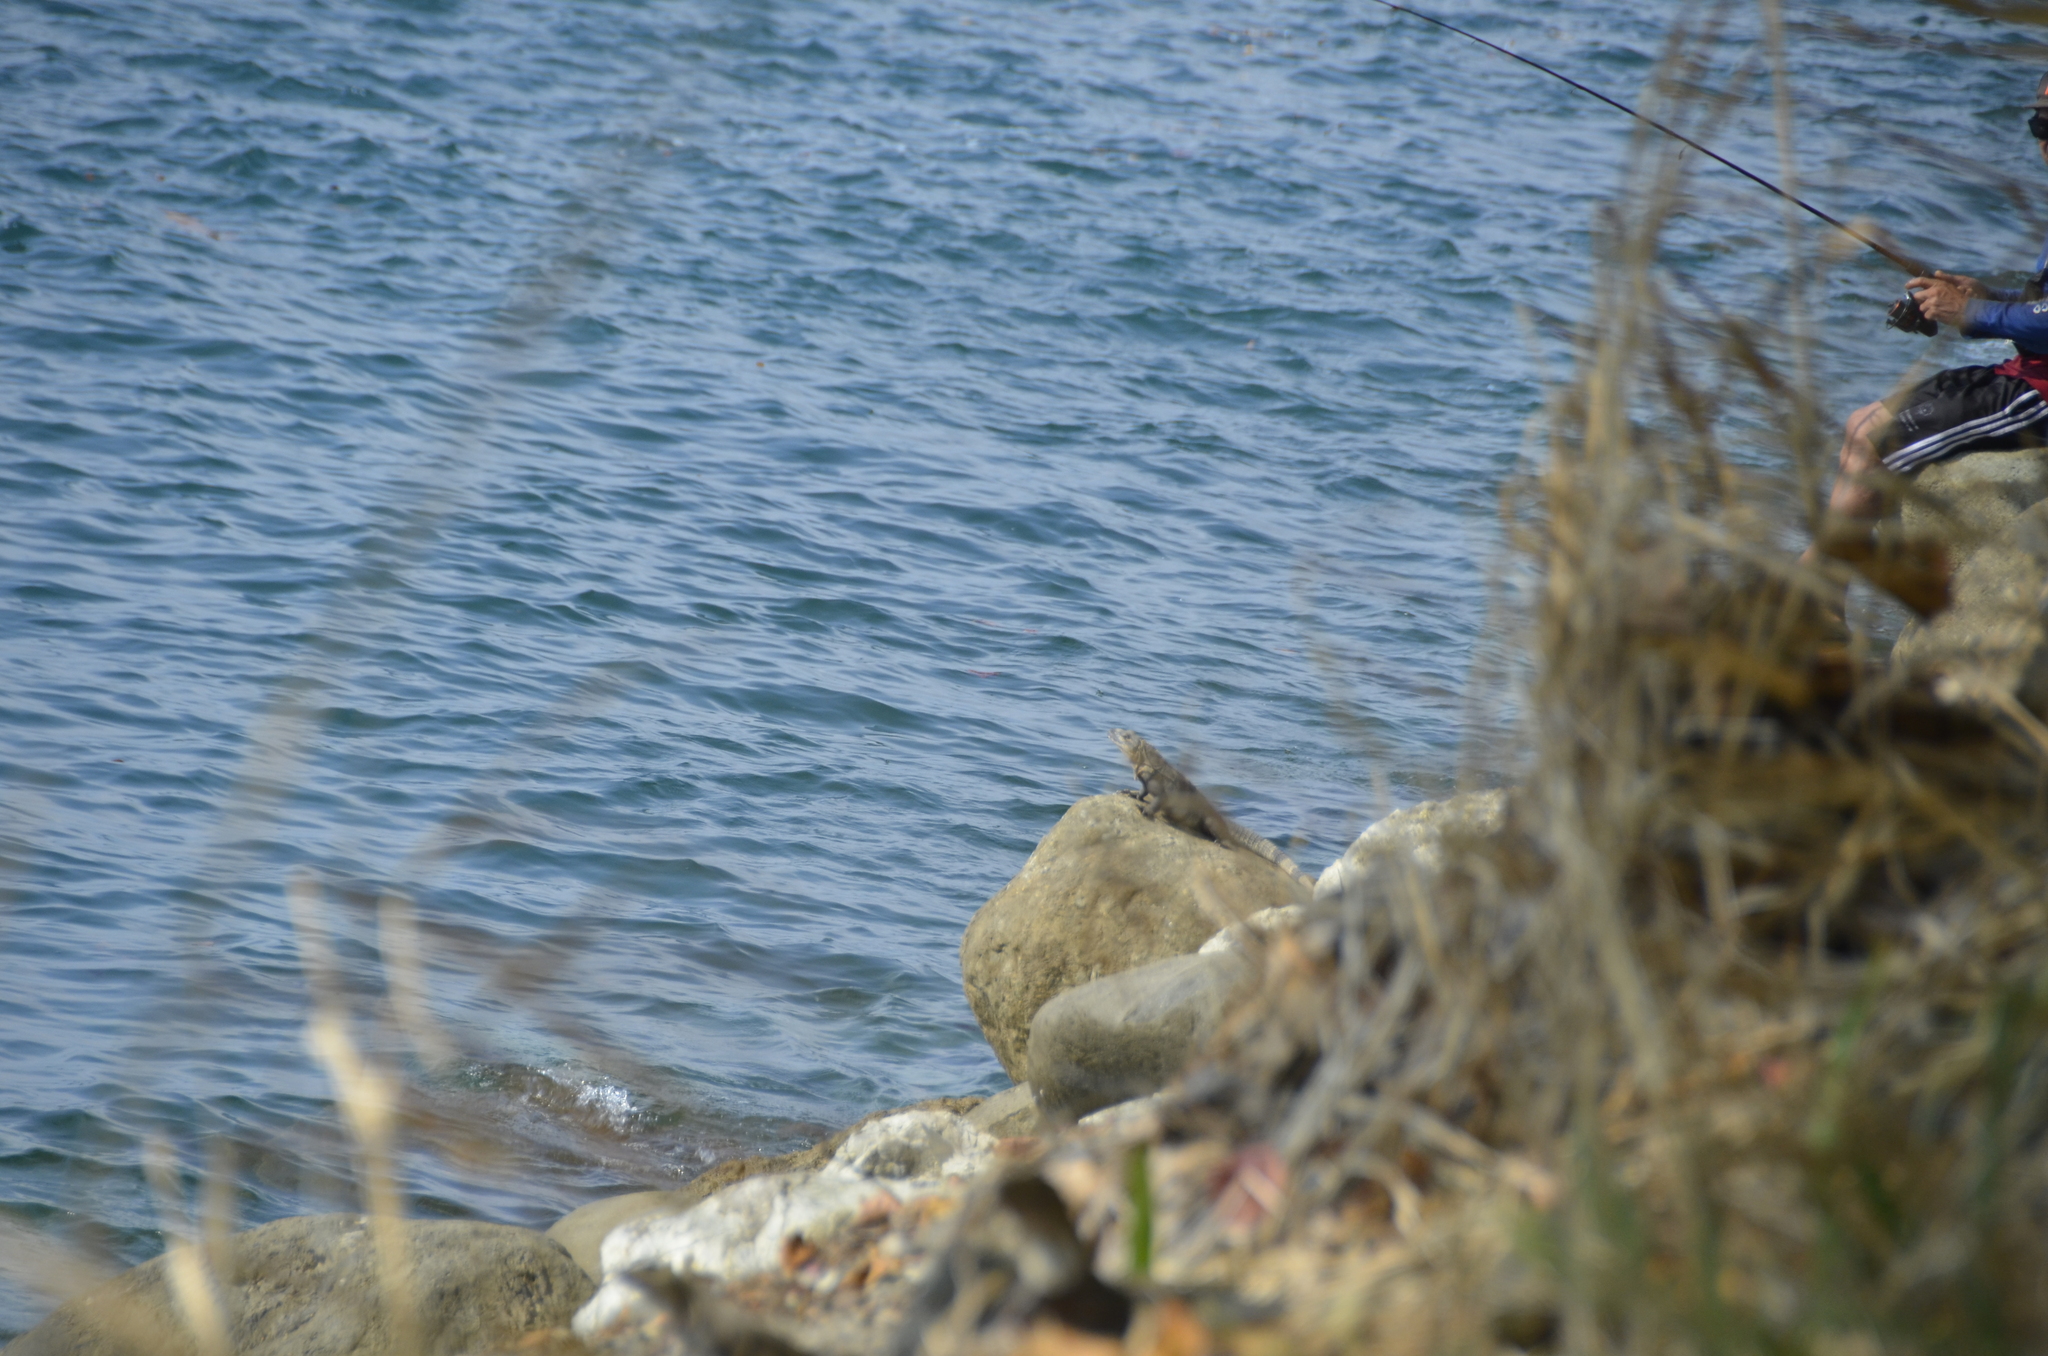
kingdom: Animalia
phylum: Chordata
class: Squamata
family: Iguanidae
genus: Ctenosaura
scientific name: Ctenosaura similis
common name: Black spiny-tailed iguana
